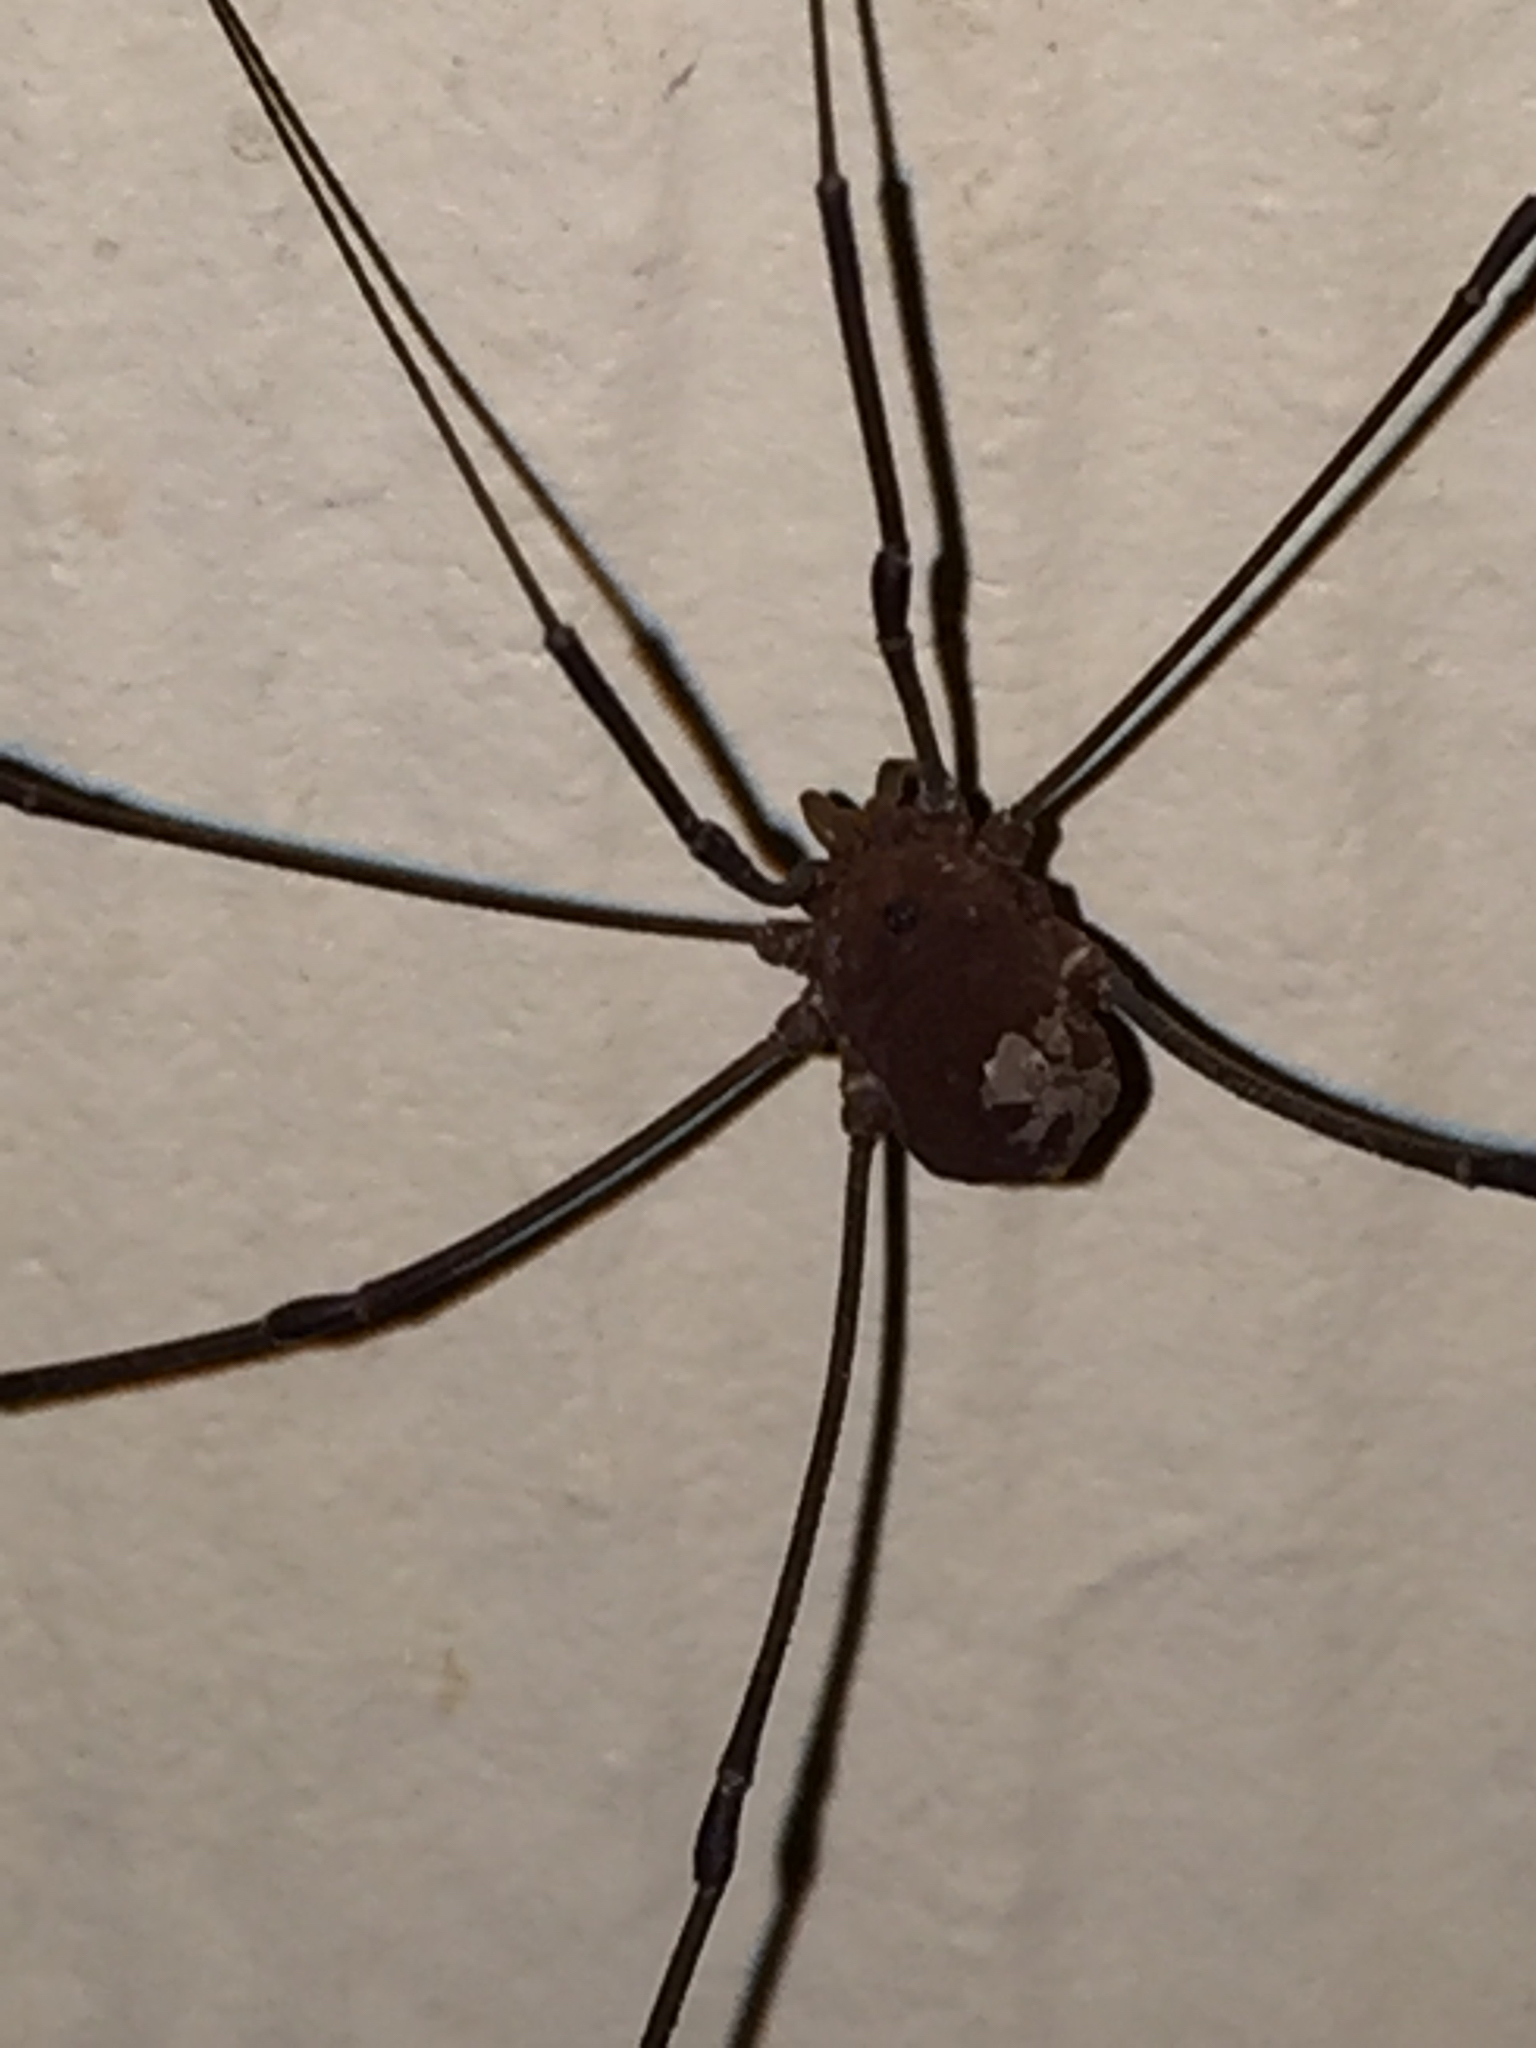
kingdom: Animalia
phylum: Arthropoda
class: Arachnida
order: Opiliones
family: Sclerosomatidae
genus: Leiobunum
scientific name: Leiobunum flavum
